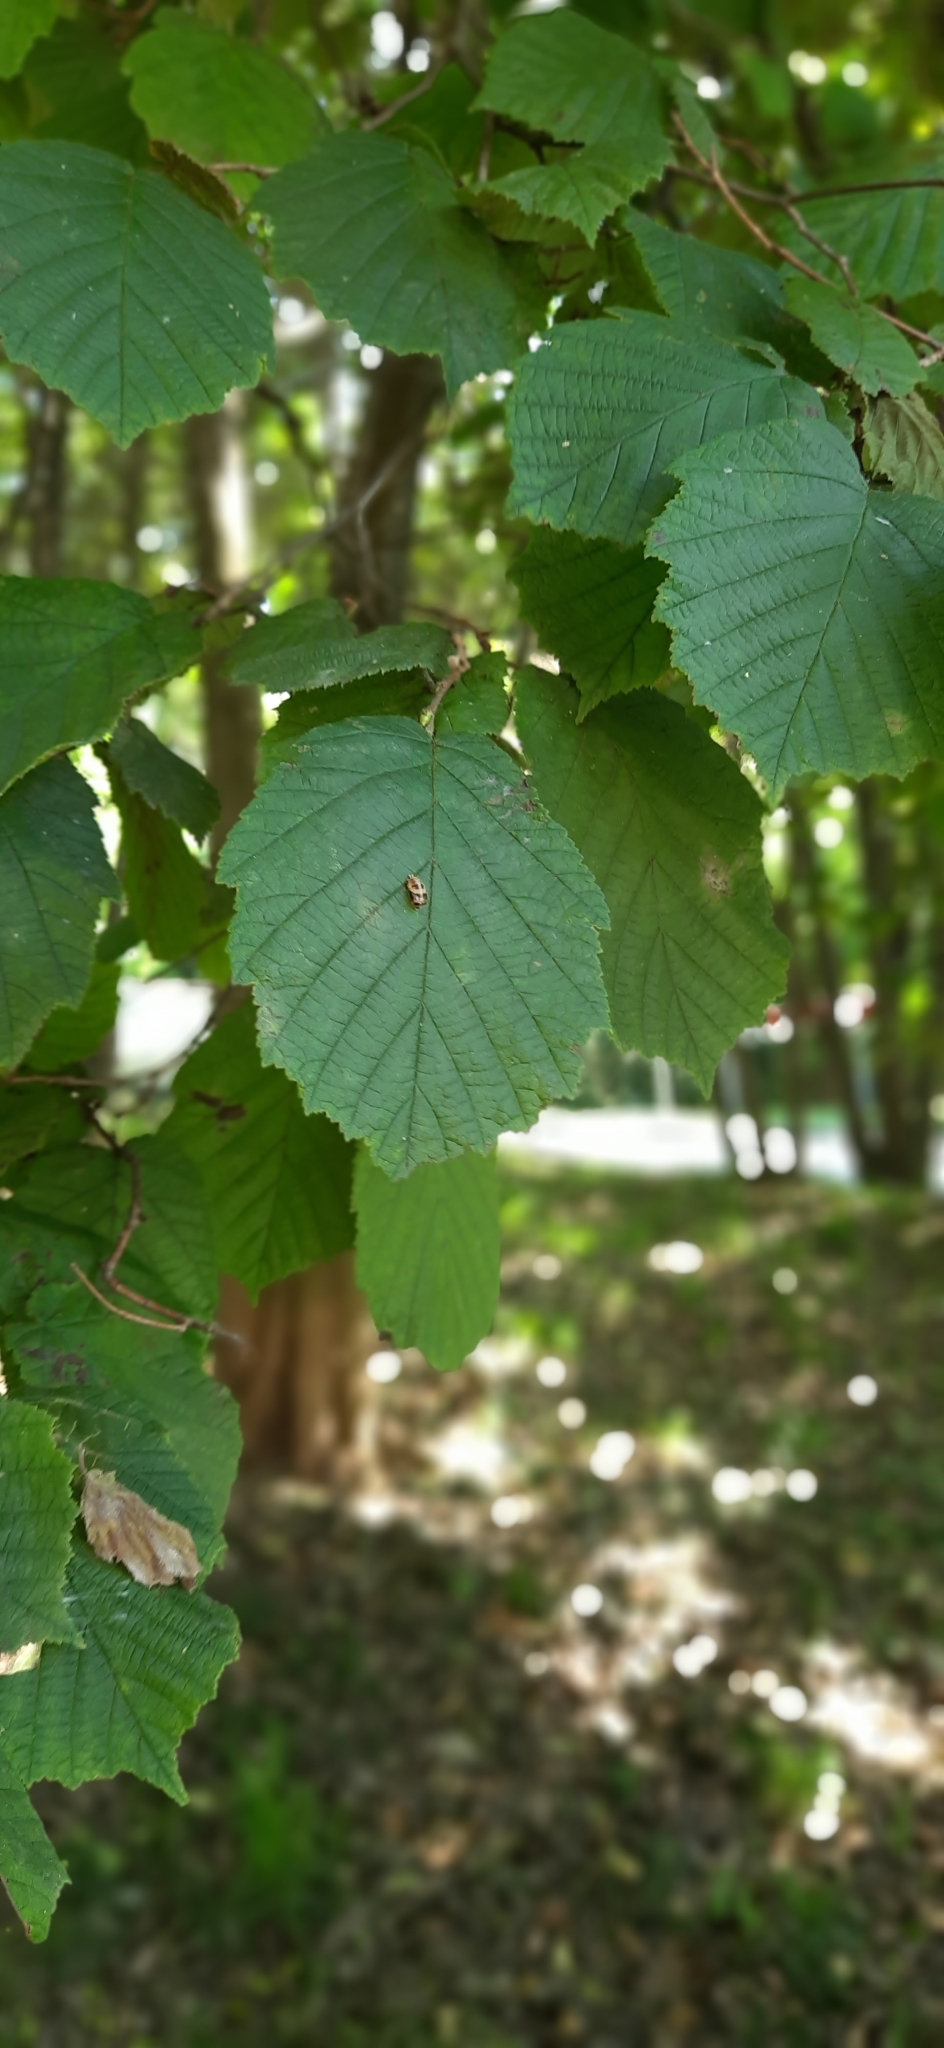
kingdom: Plantae
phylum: Tracheophyta
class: Magnoliopsida
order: Fagales
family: Betulaceae
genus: Corylus
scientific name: Corylus avellana
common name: European hazel
